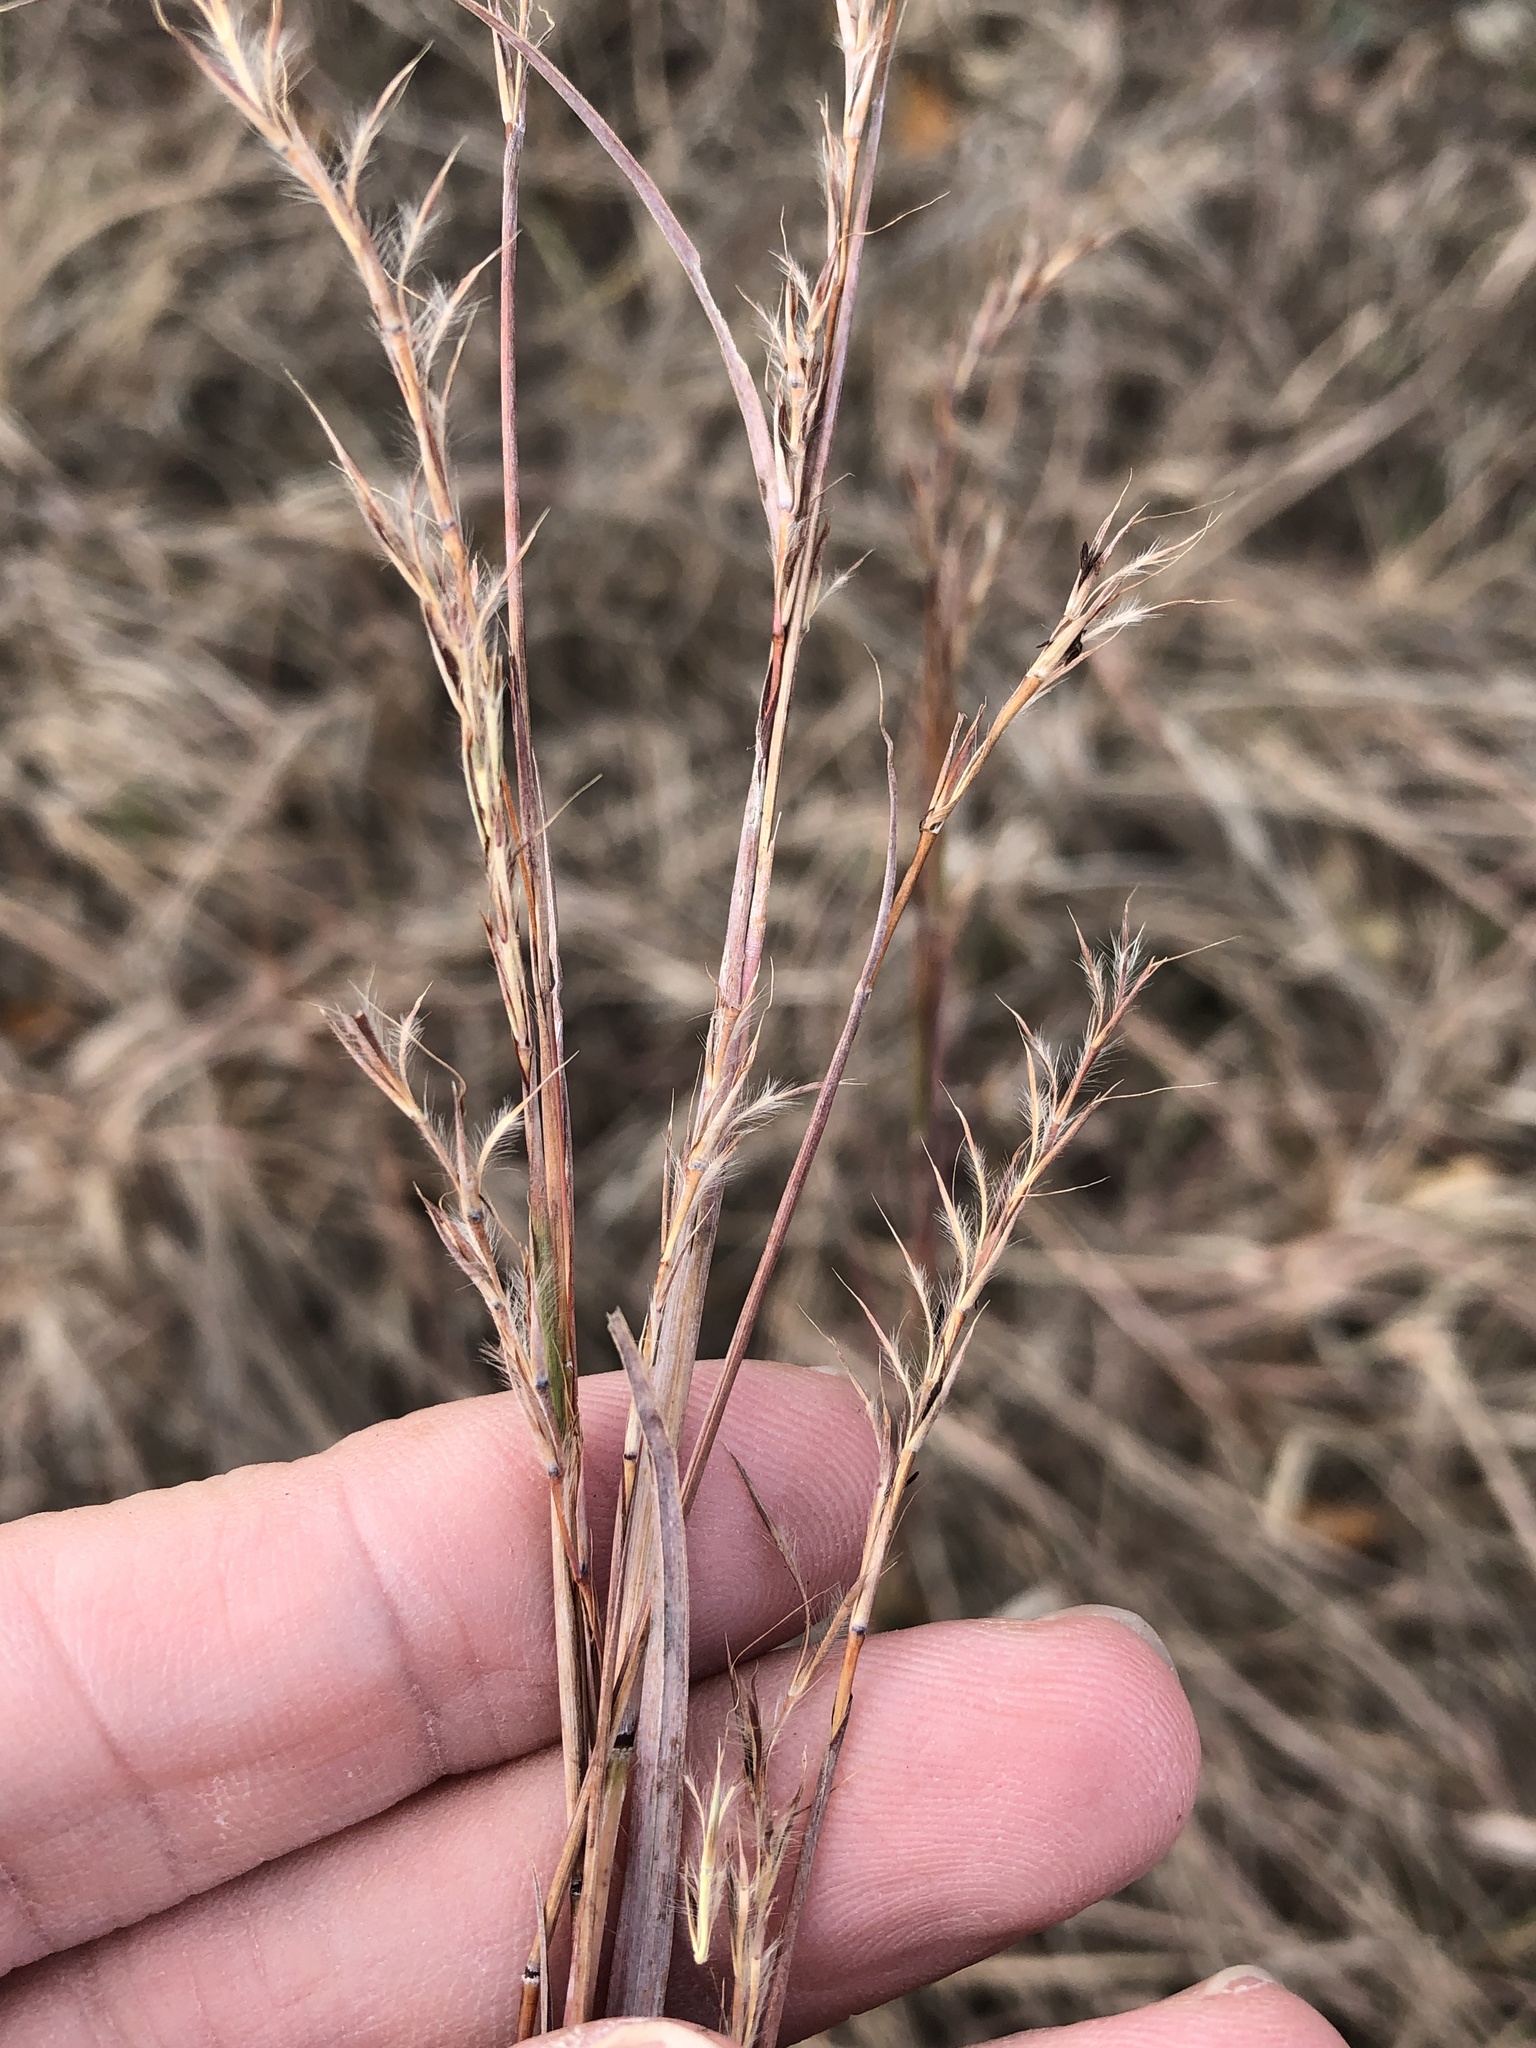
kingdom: Plantae
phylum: Tracheophyta
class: Liliopsida
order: Poales
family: Poaceae
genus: Schizachyrium
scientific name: Schizachyrium scoparium
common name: Little bluestem
